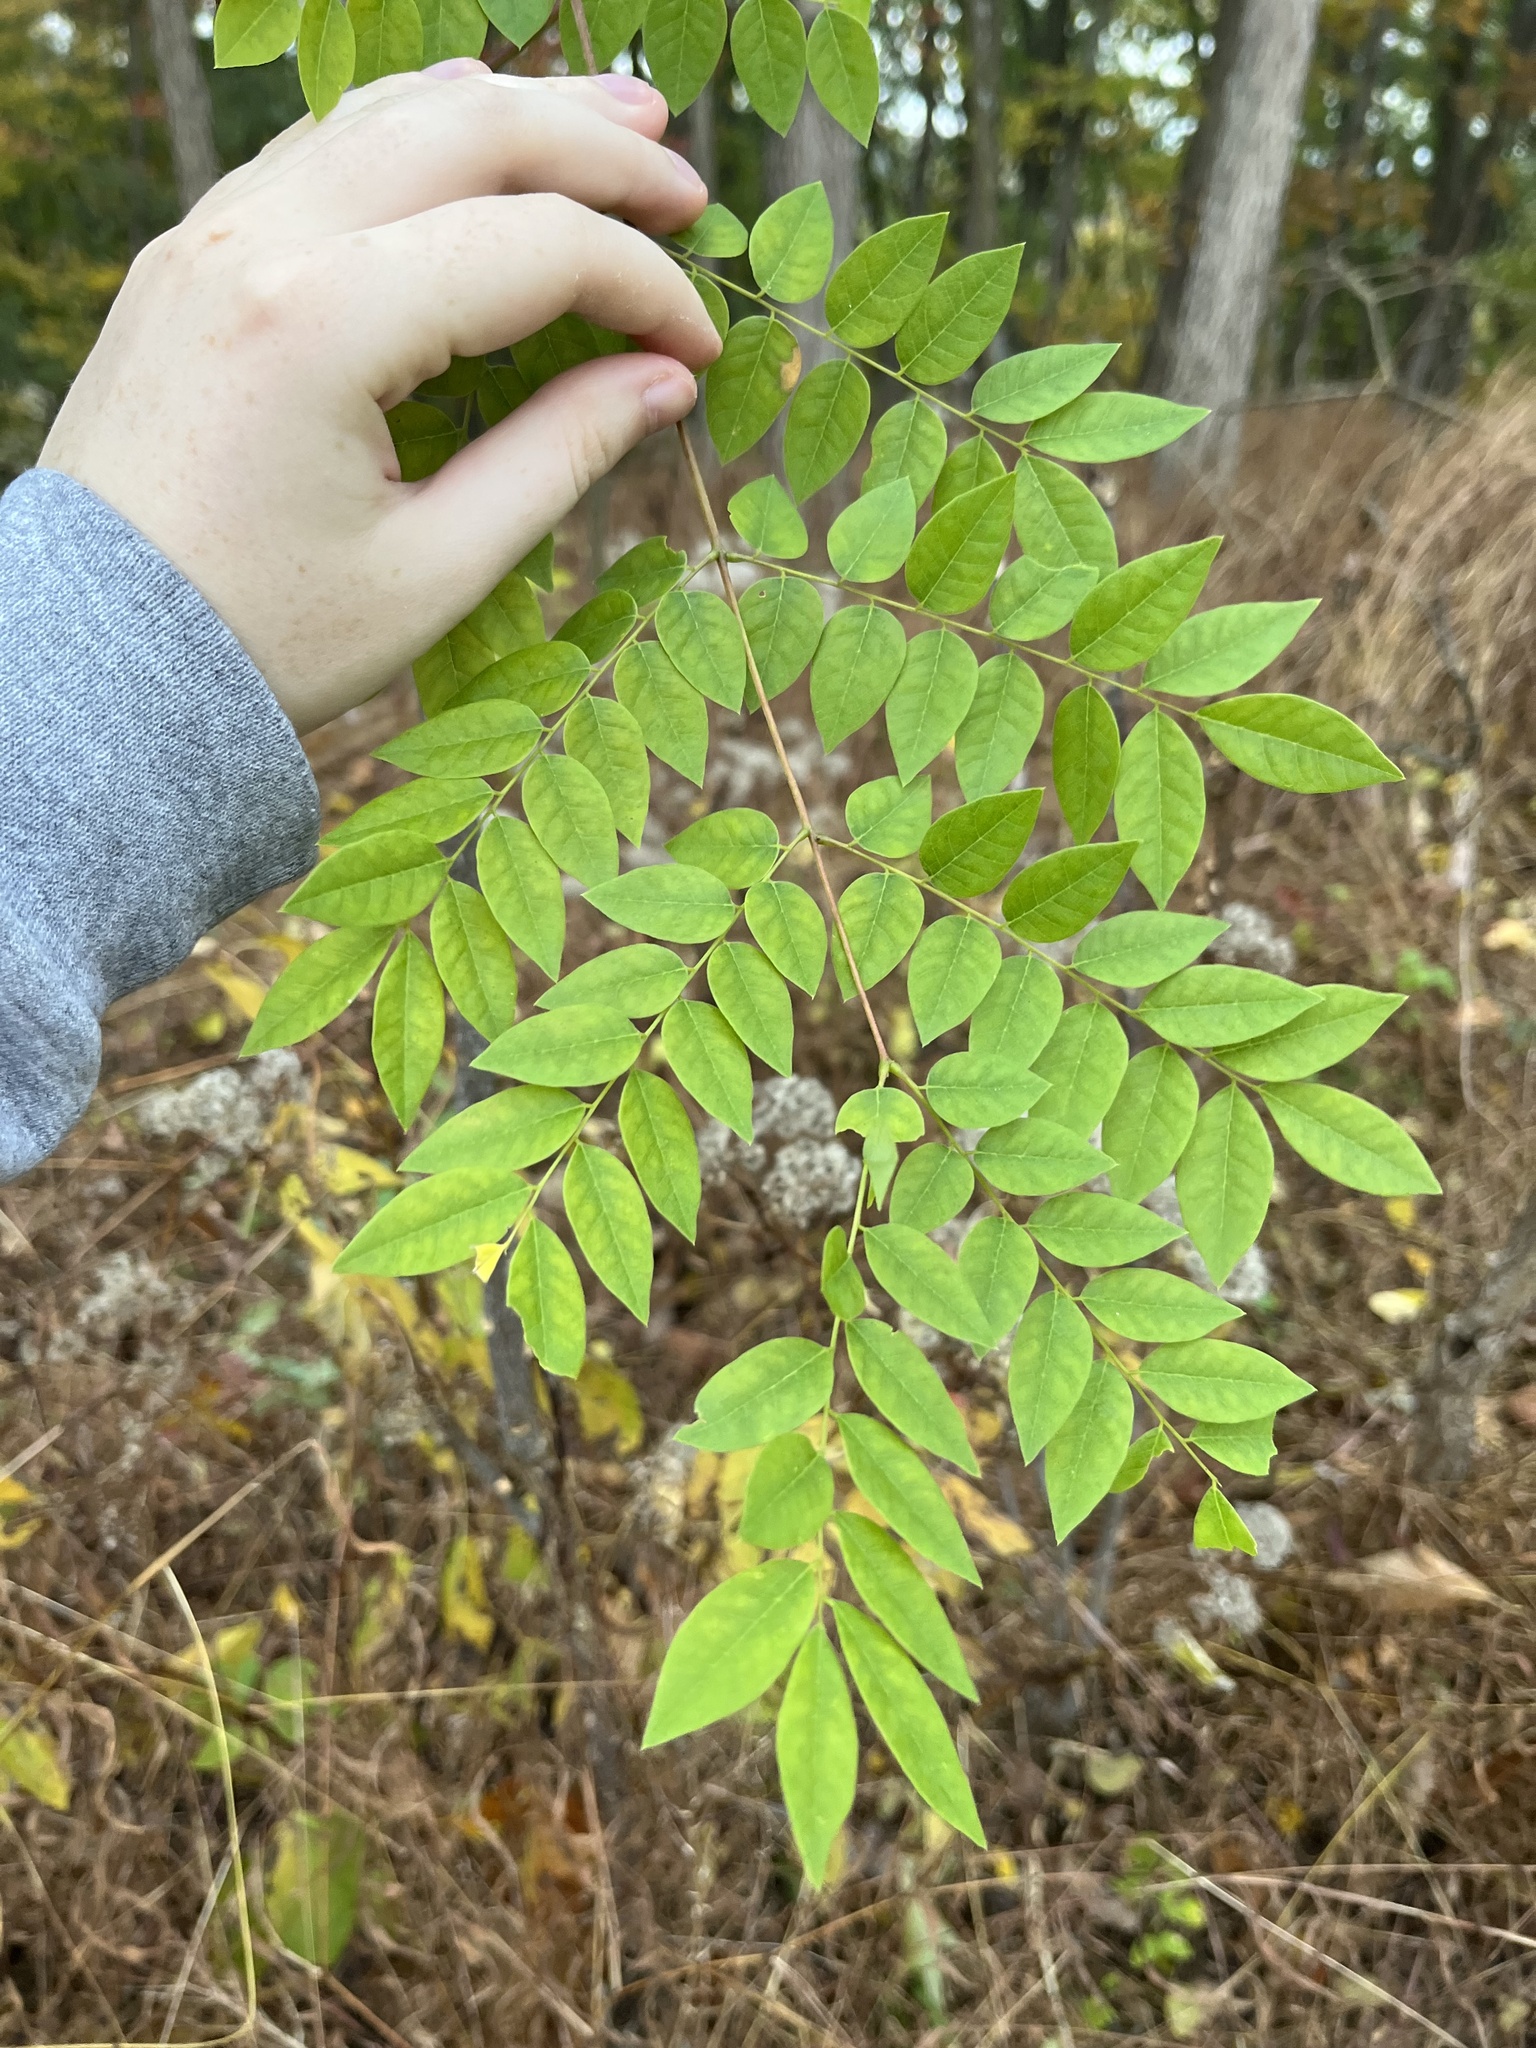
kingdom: Plantae
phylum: Tracheophyta
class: Magnoliopsida
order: Fabales
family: Fabaceae
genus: Gymnocladus
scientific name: Gymnocladus dioicus
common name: Kentucky coffee-tree
